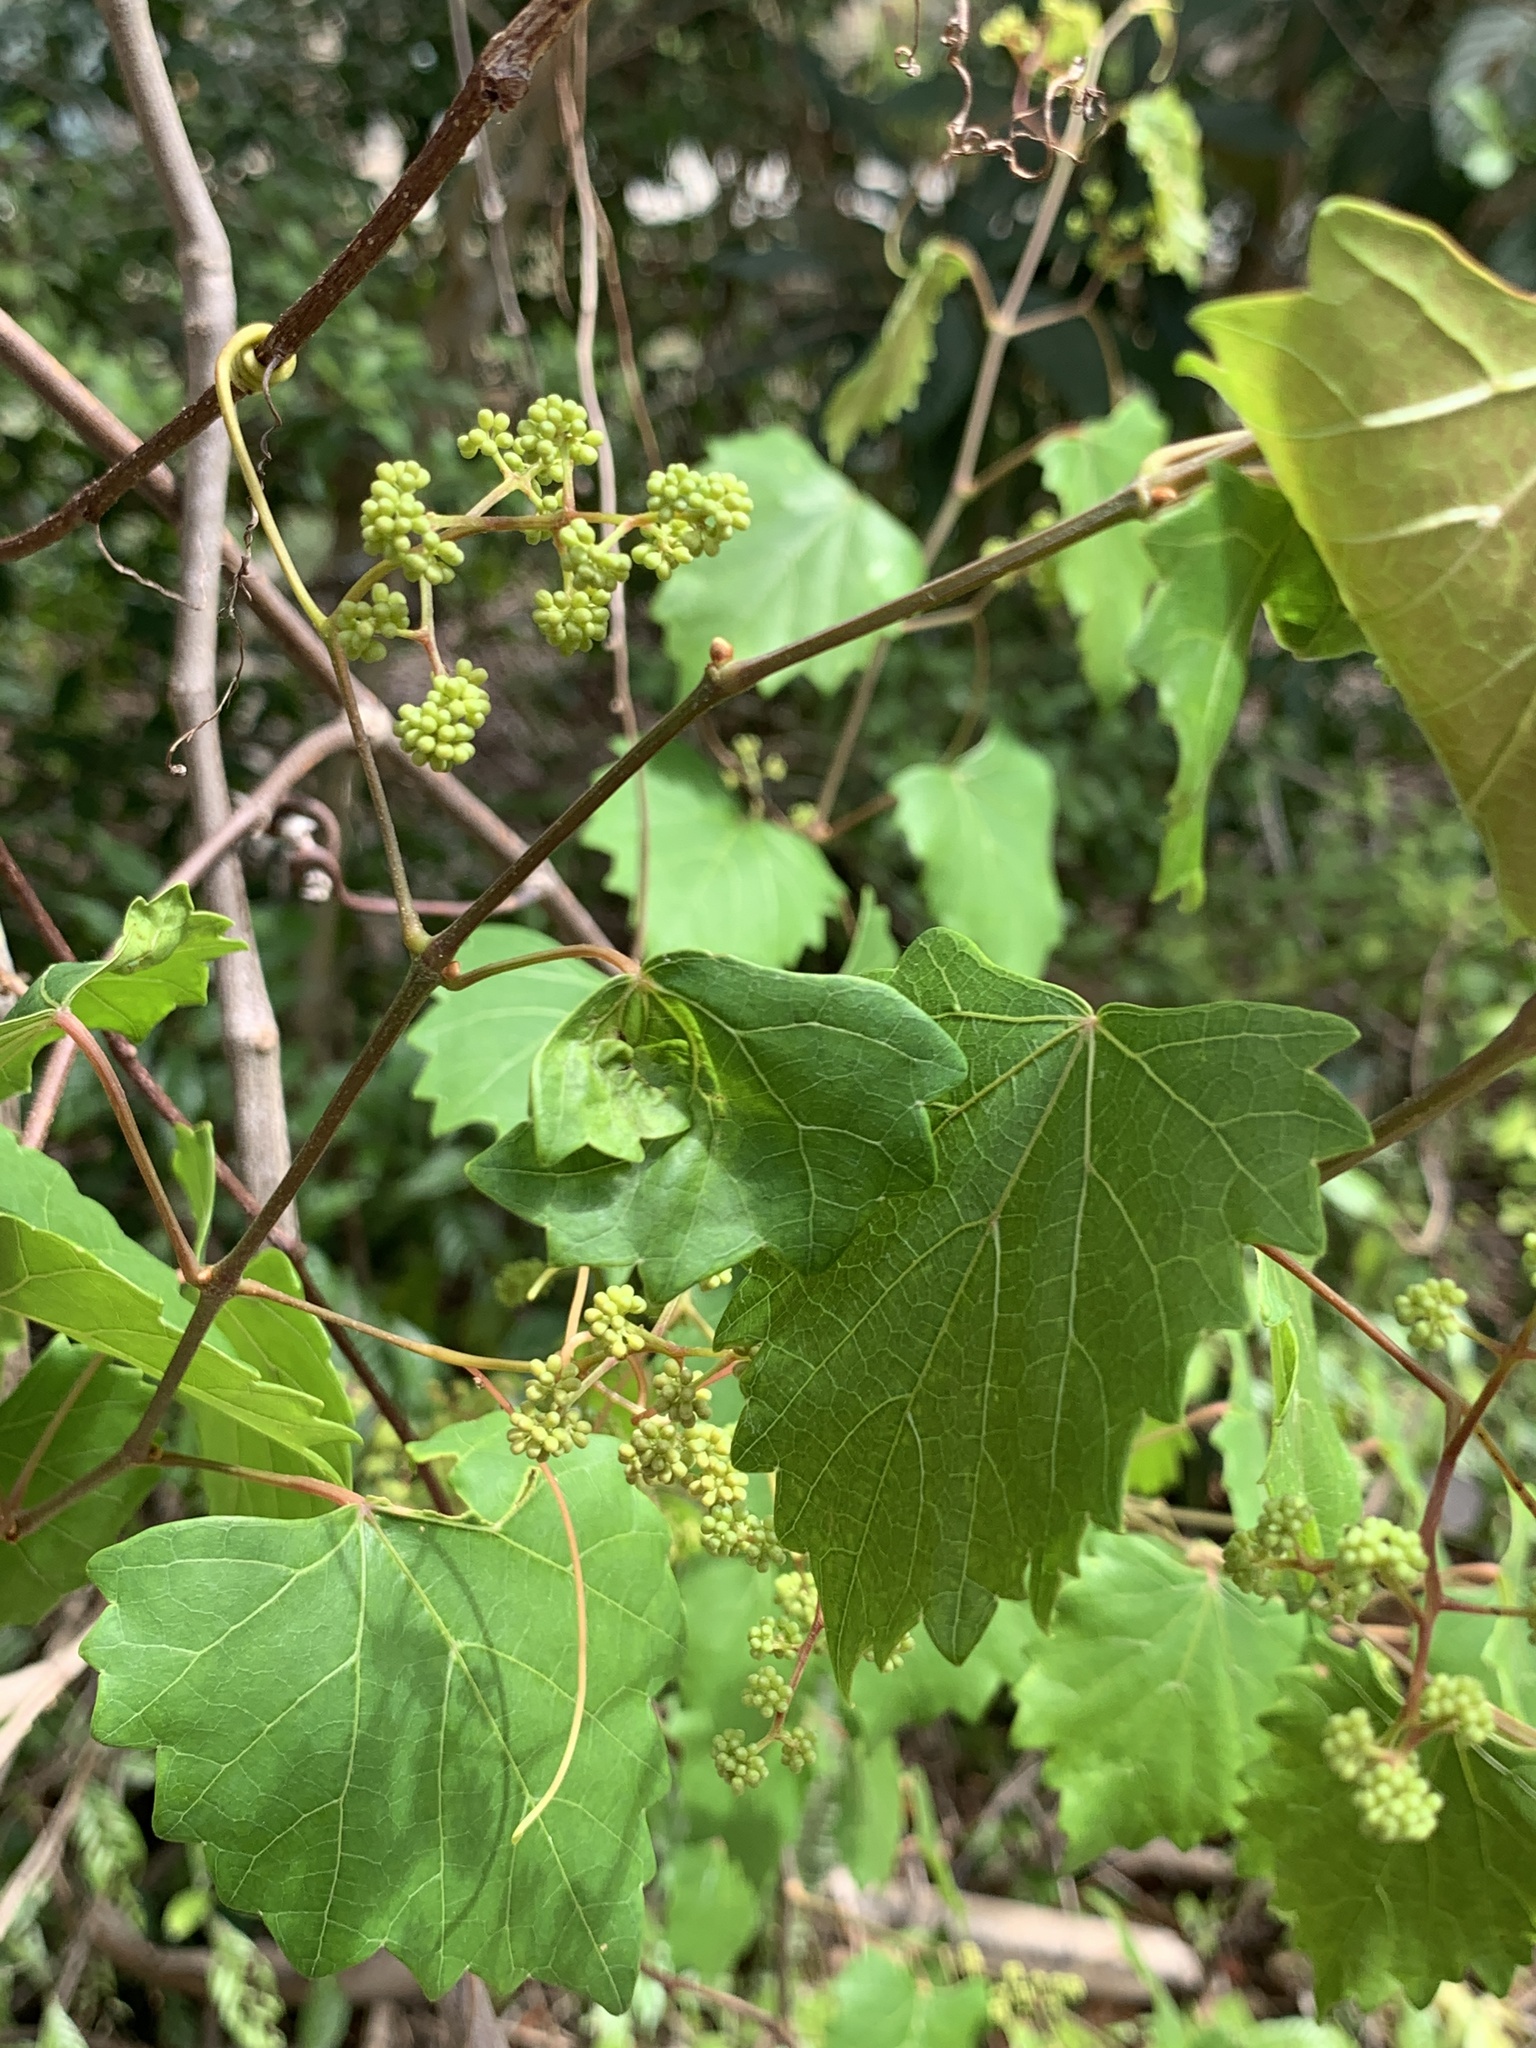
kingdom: Plantae
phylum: Tracheophyta
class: Magnoliopsida
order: Vitales
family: Vitaceae
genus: Vitis
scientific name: Vitis rotundifolia
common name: Muscadine grape
